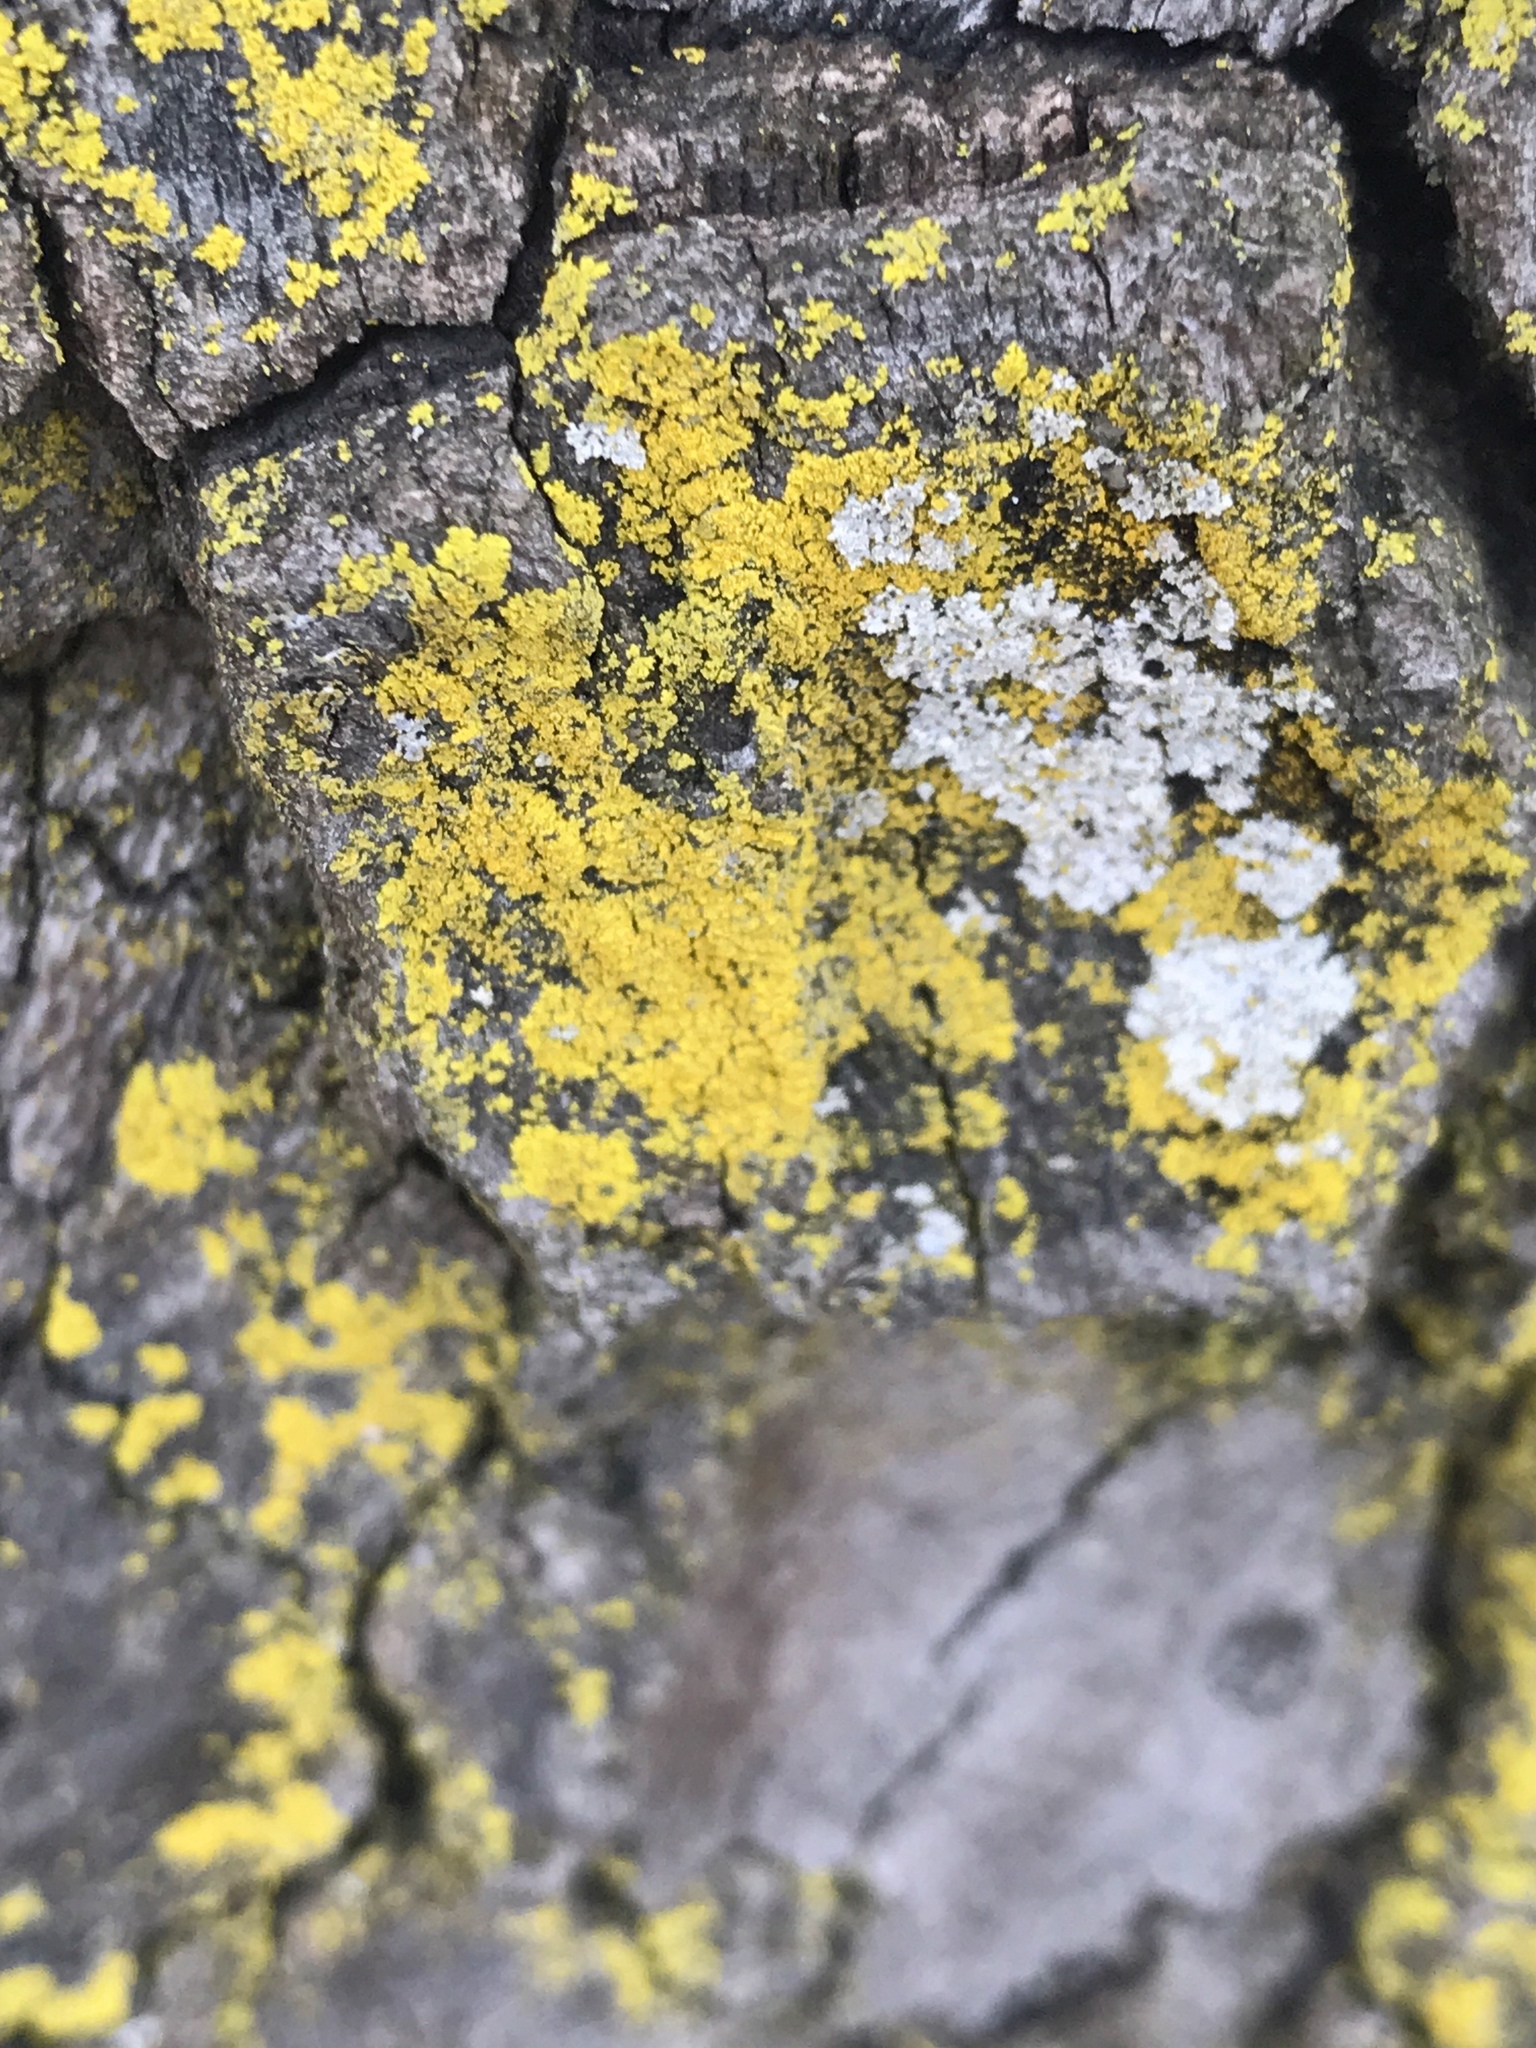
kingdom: Fungi
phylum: Ascomycota
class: Candelariomycetes
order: Candelariales
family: Candelariaceae
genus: Candelaria
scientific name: Candelaria concolor
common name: Candleflame lichen
